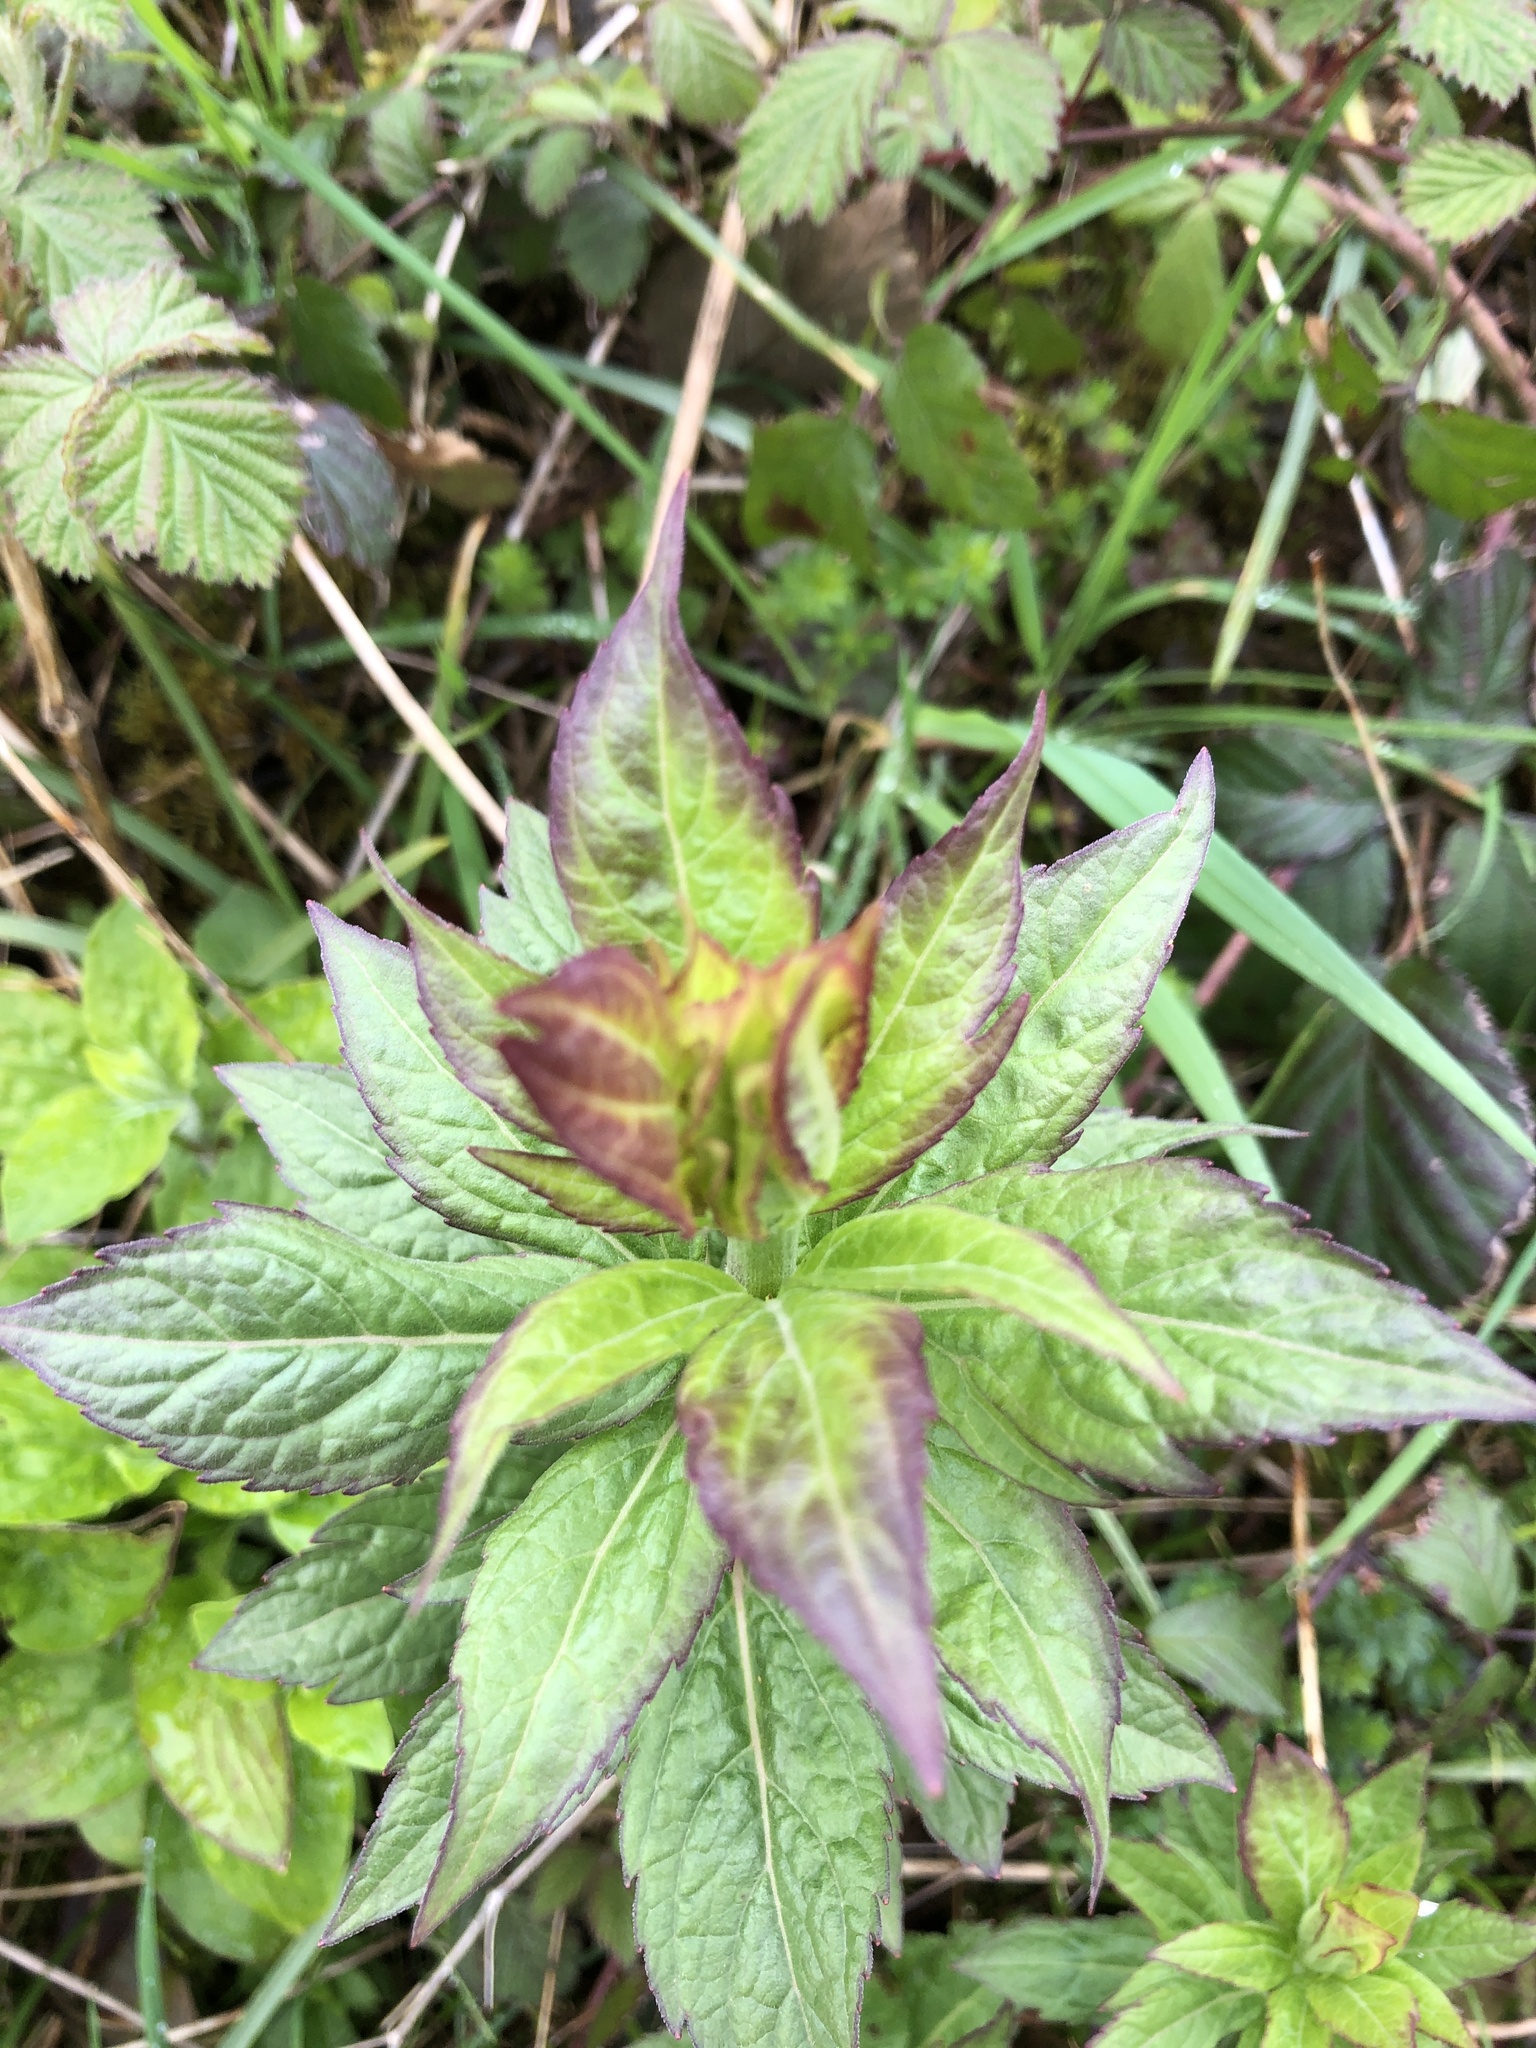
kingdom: Plantae
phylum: Tracheophyta
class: Magnoliopsida
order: Asterales
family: Asteraceae
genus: Eupatorium
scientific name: Eupatorium cannabinum
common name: Hemp-agrimony
